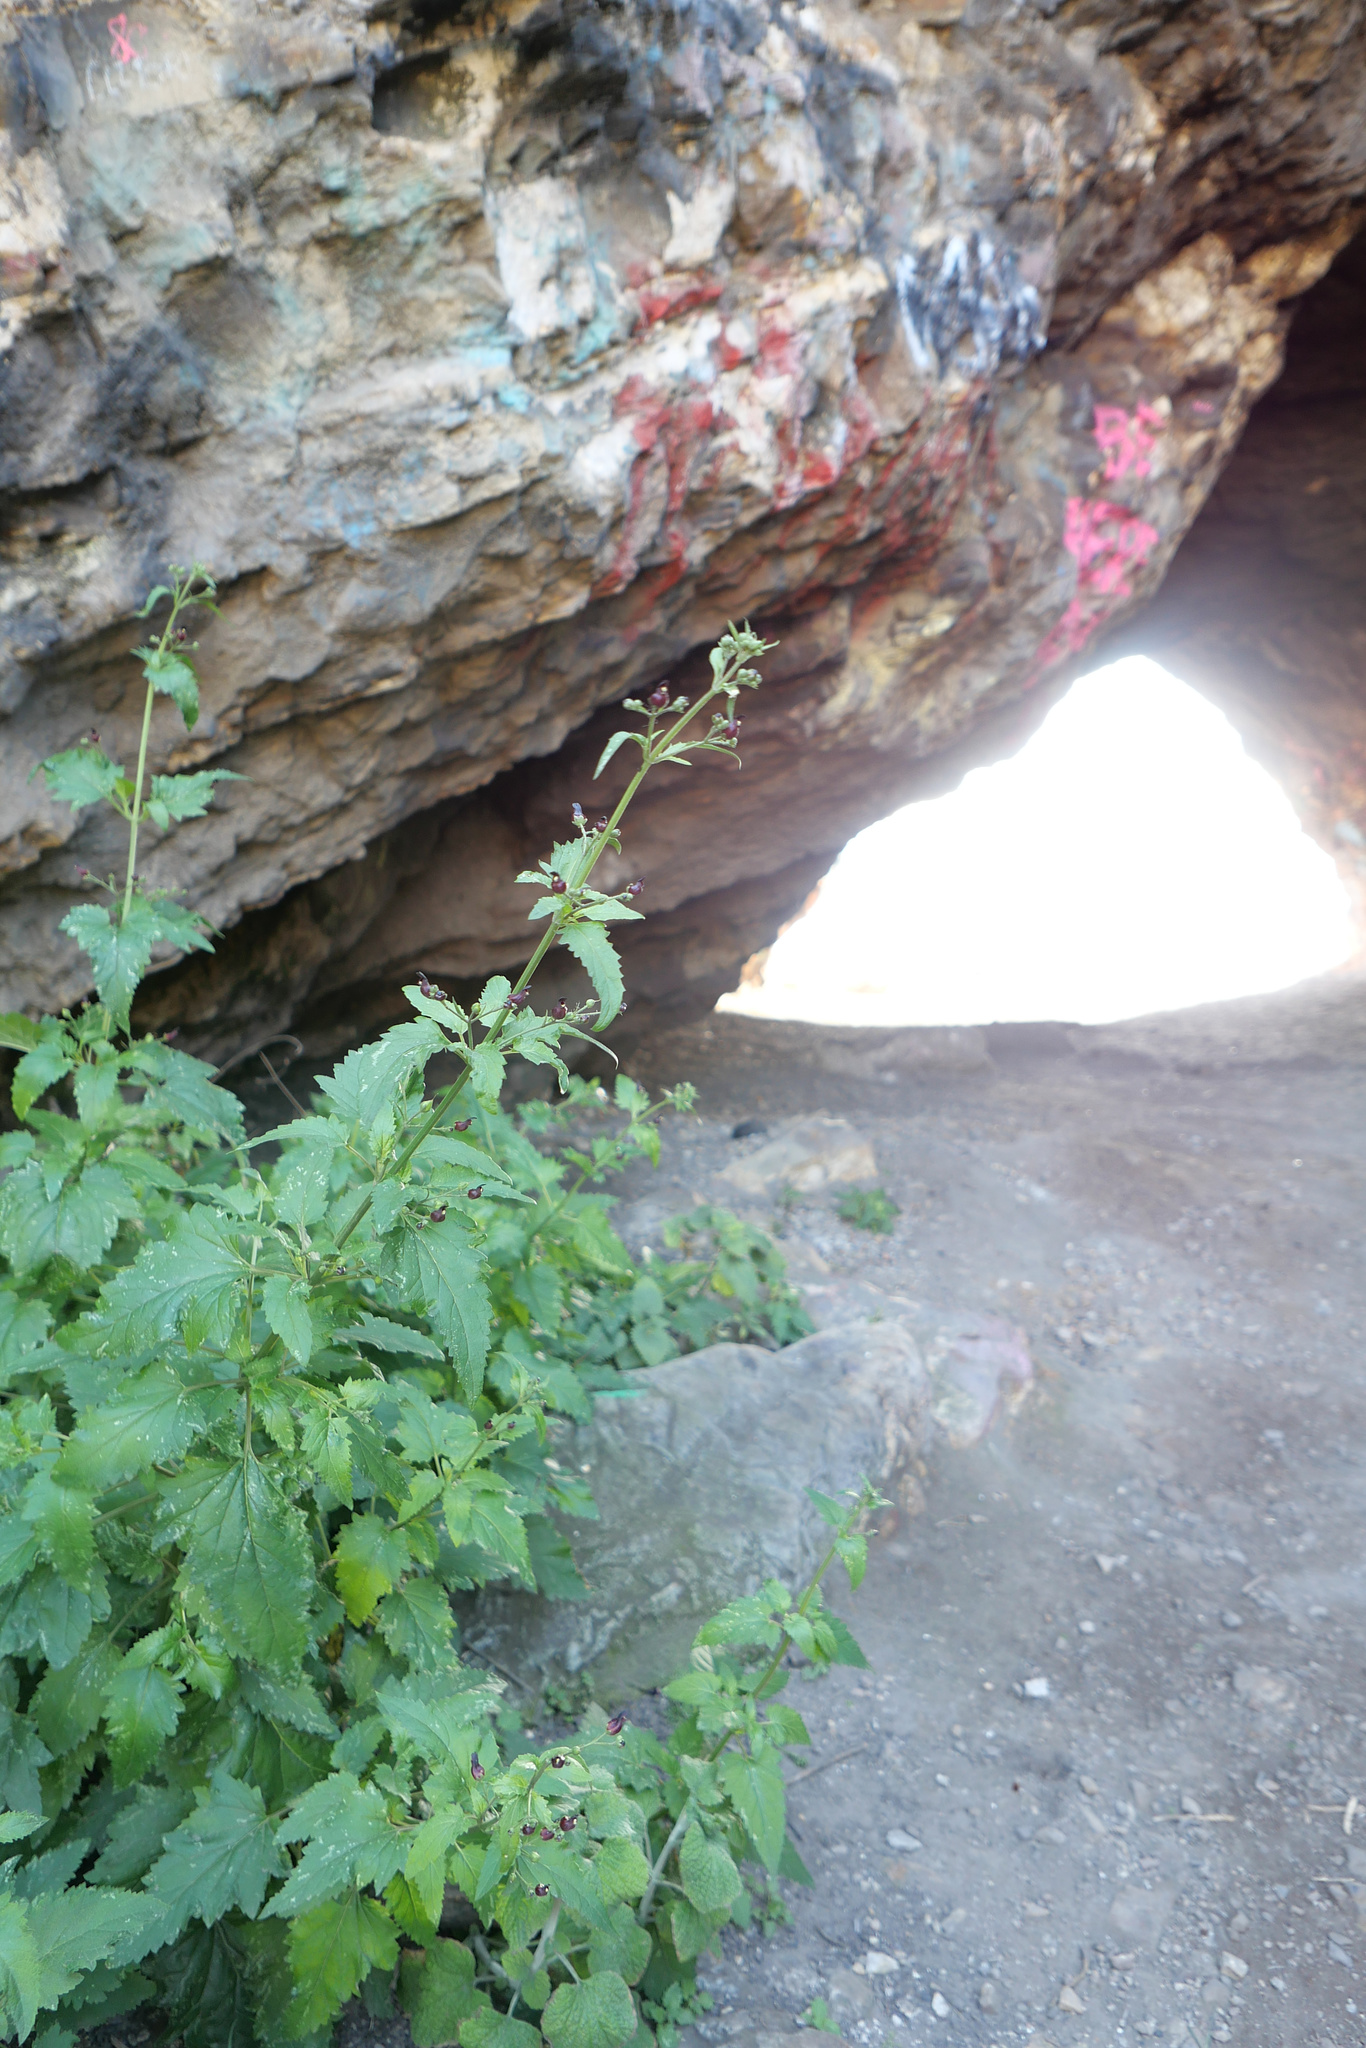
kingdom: Plantae
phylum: Tracheophyta
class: Magnoliopsida
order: Lamiales
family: Scrophulariaceae
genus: Scrophularia
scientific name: Scrophularia atrata
